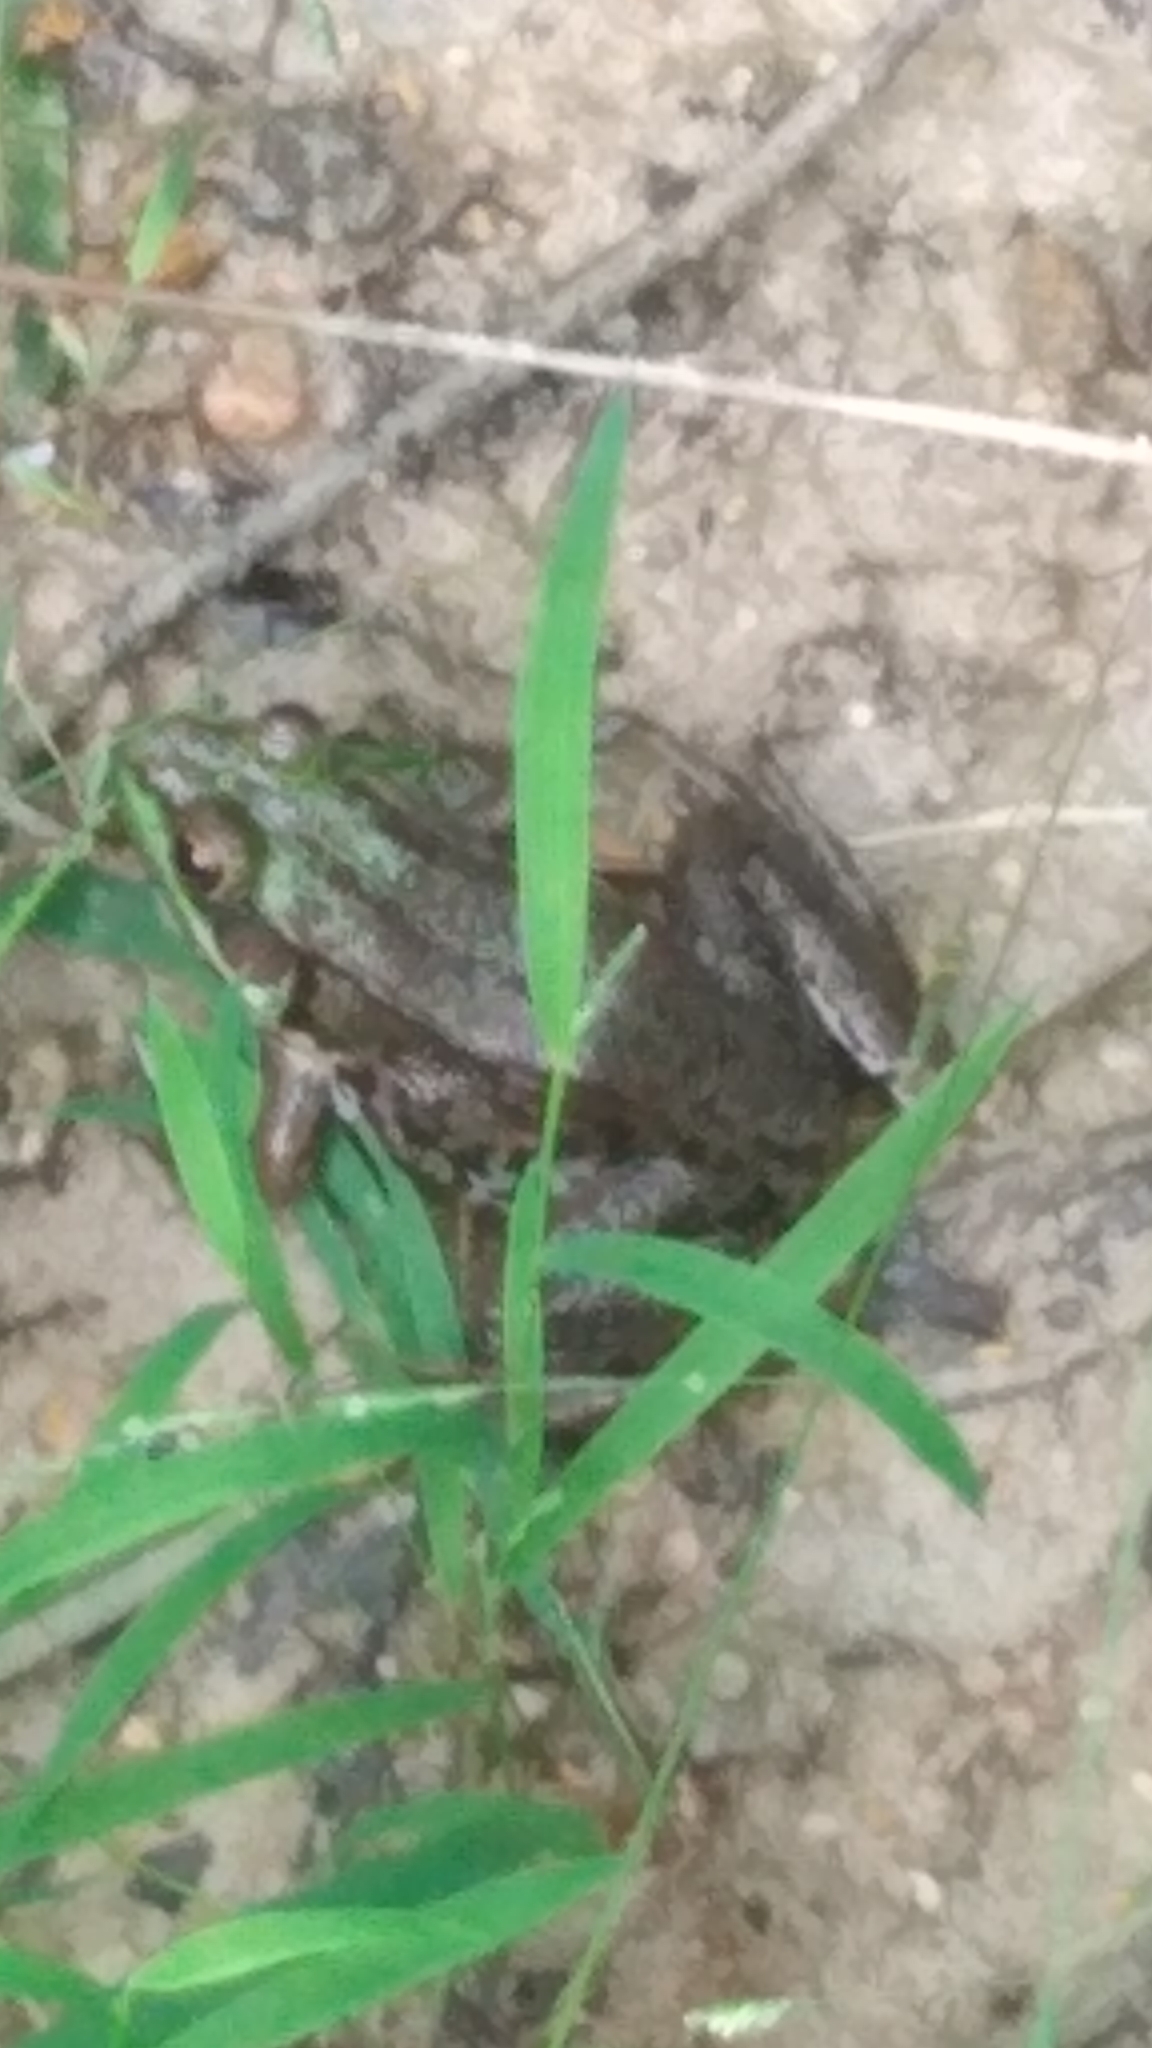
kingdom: Animalia
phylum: Chordata
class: Amphibia
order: Anura
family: Ranidae
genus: Lithobates
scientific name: Lithobates clamitans
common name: Green frog
